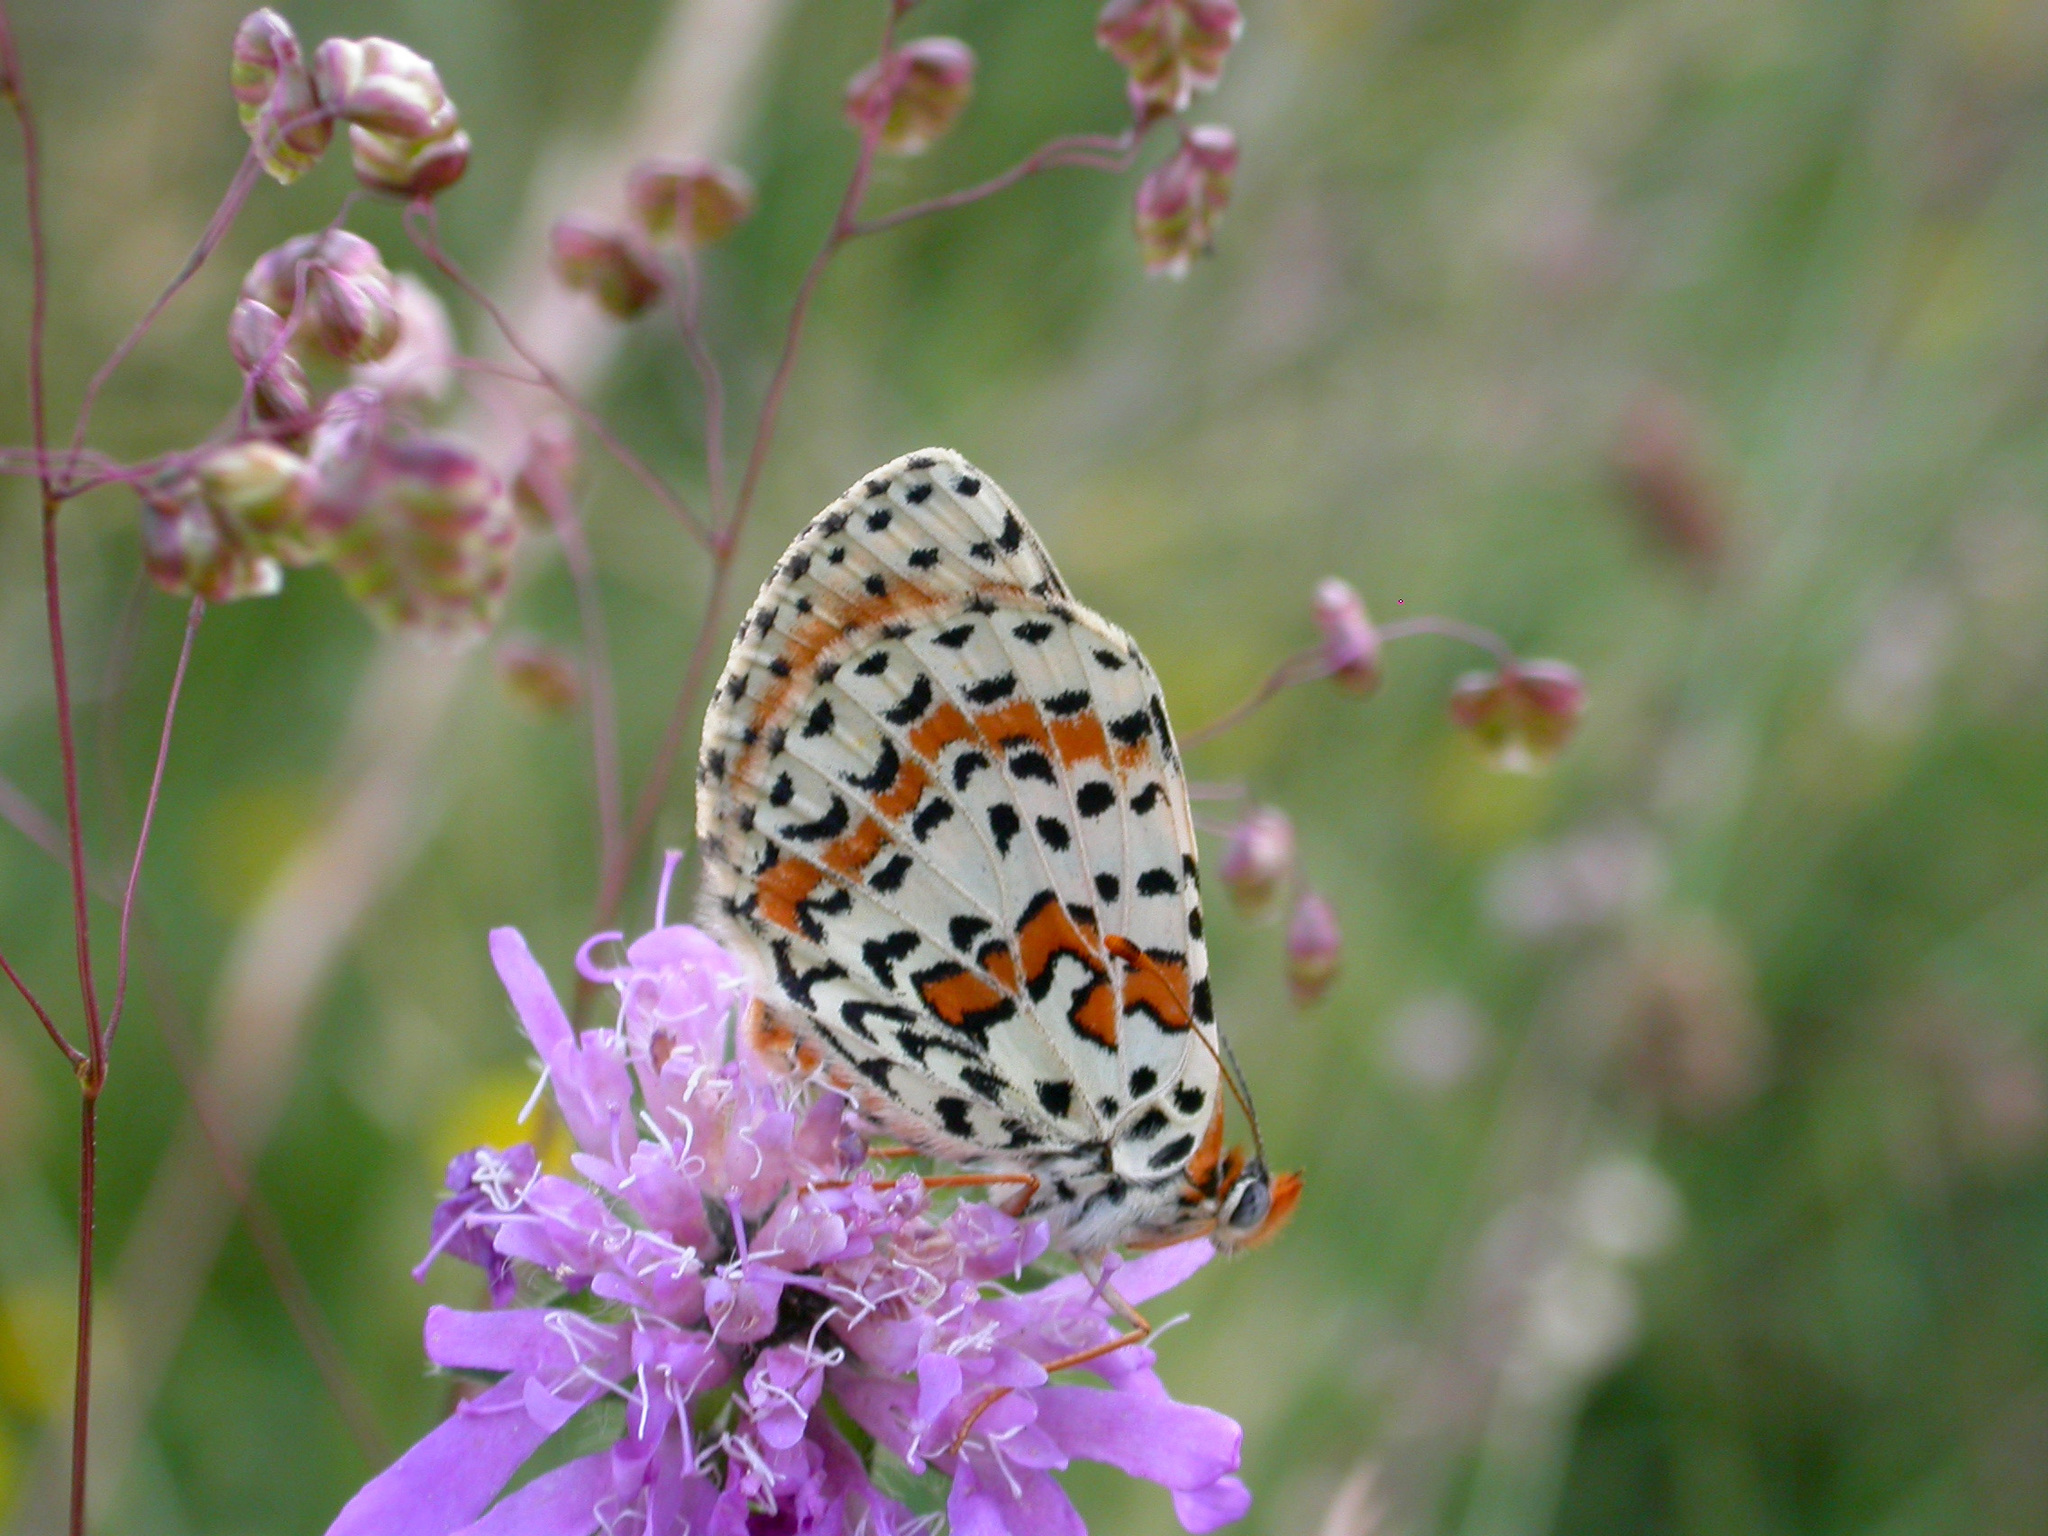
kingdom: Animalia
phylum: Arthropoda
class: Insecta
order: Lepidoptera
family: Nymphalidae
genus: Melitaea
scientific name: Melitaea didyma
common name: Spotted fritillary
